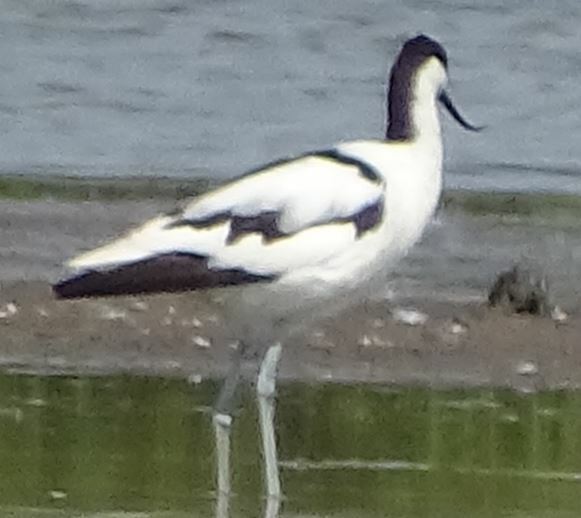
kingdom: Animalia
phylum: Chordata
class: Aves
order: Charadriiformes
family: Recurvirostridae
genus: Recurvirostra
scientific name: Recurvirostra avosetta
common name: Pied avocet
